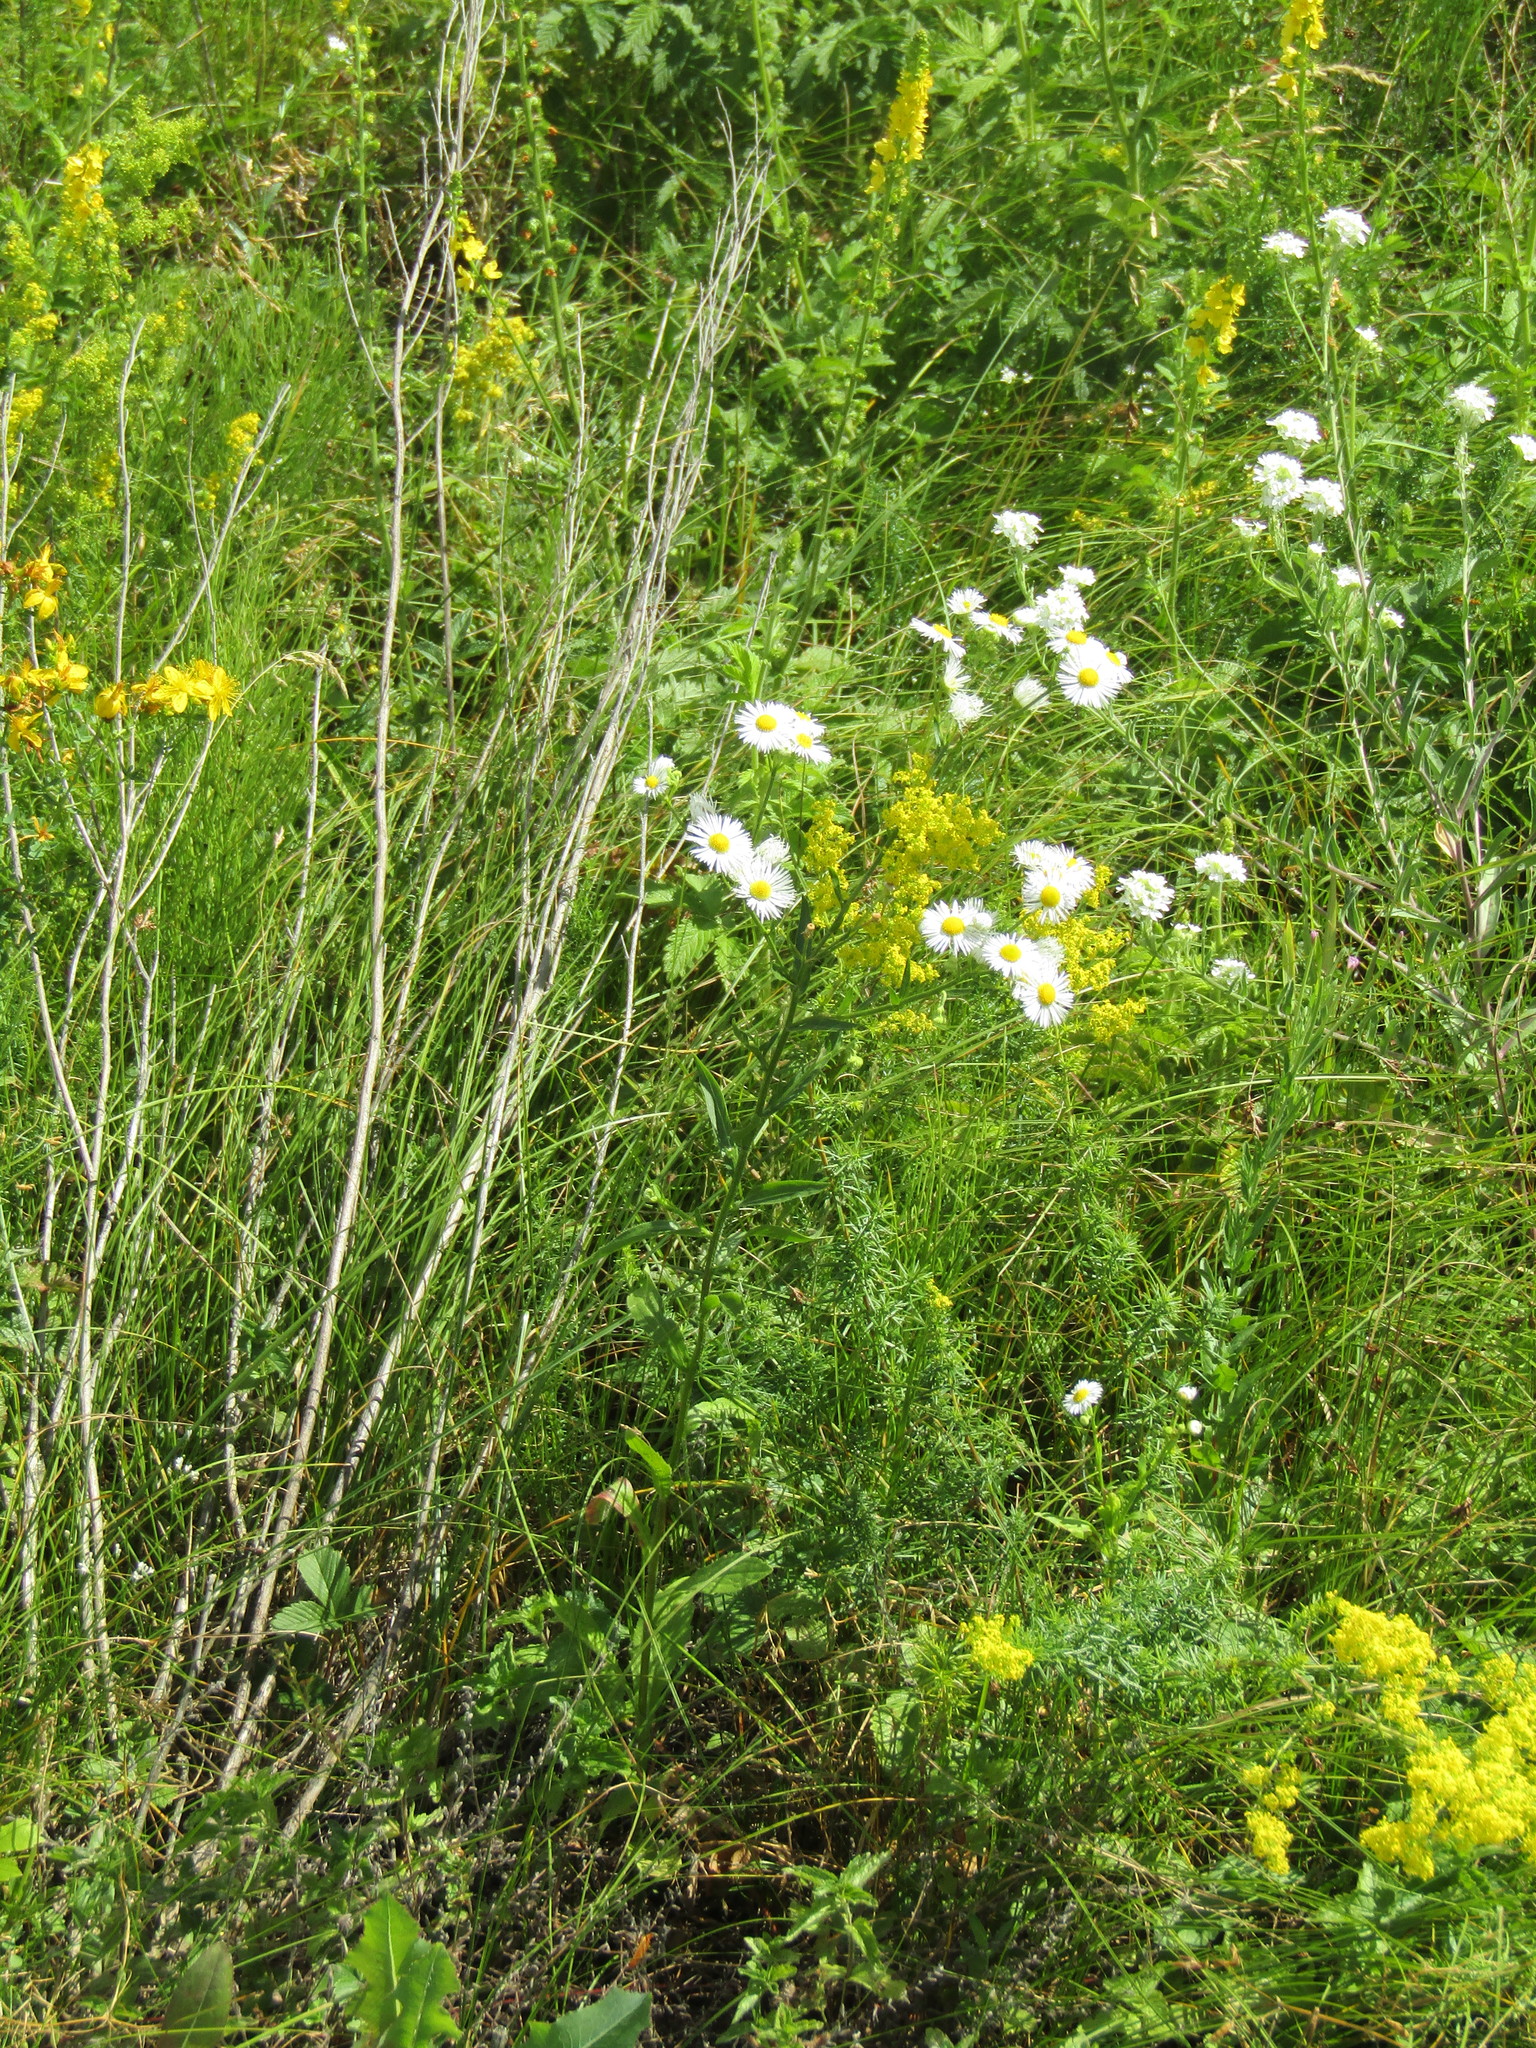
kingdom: Plantae
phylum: Tracheophyta
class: Magnoliopsida
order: Asterales
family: Asteraceae
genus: Erigeron
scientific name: Erigeron annuus
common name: Tall fleabane
